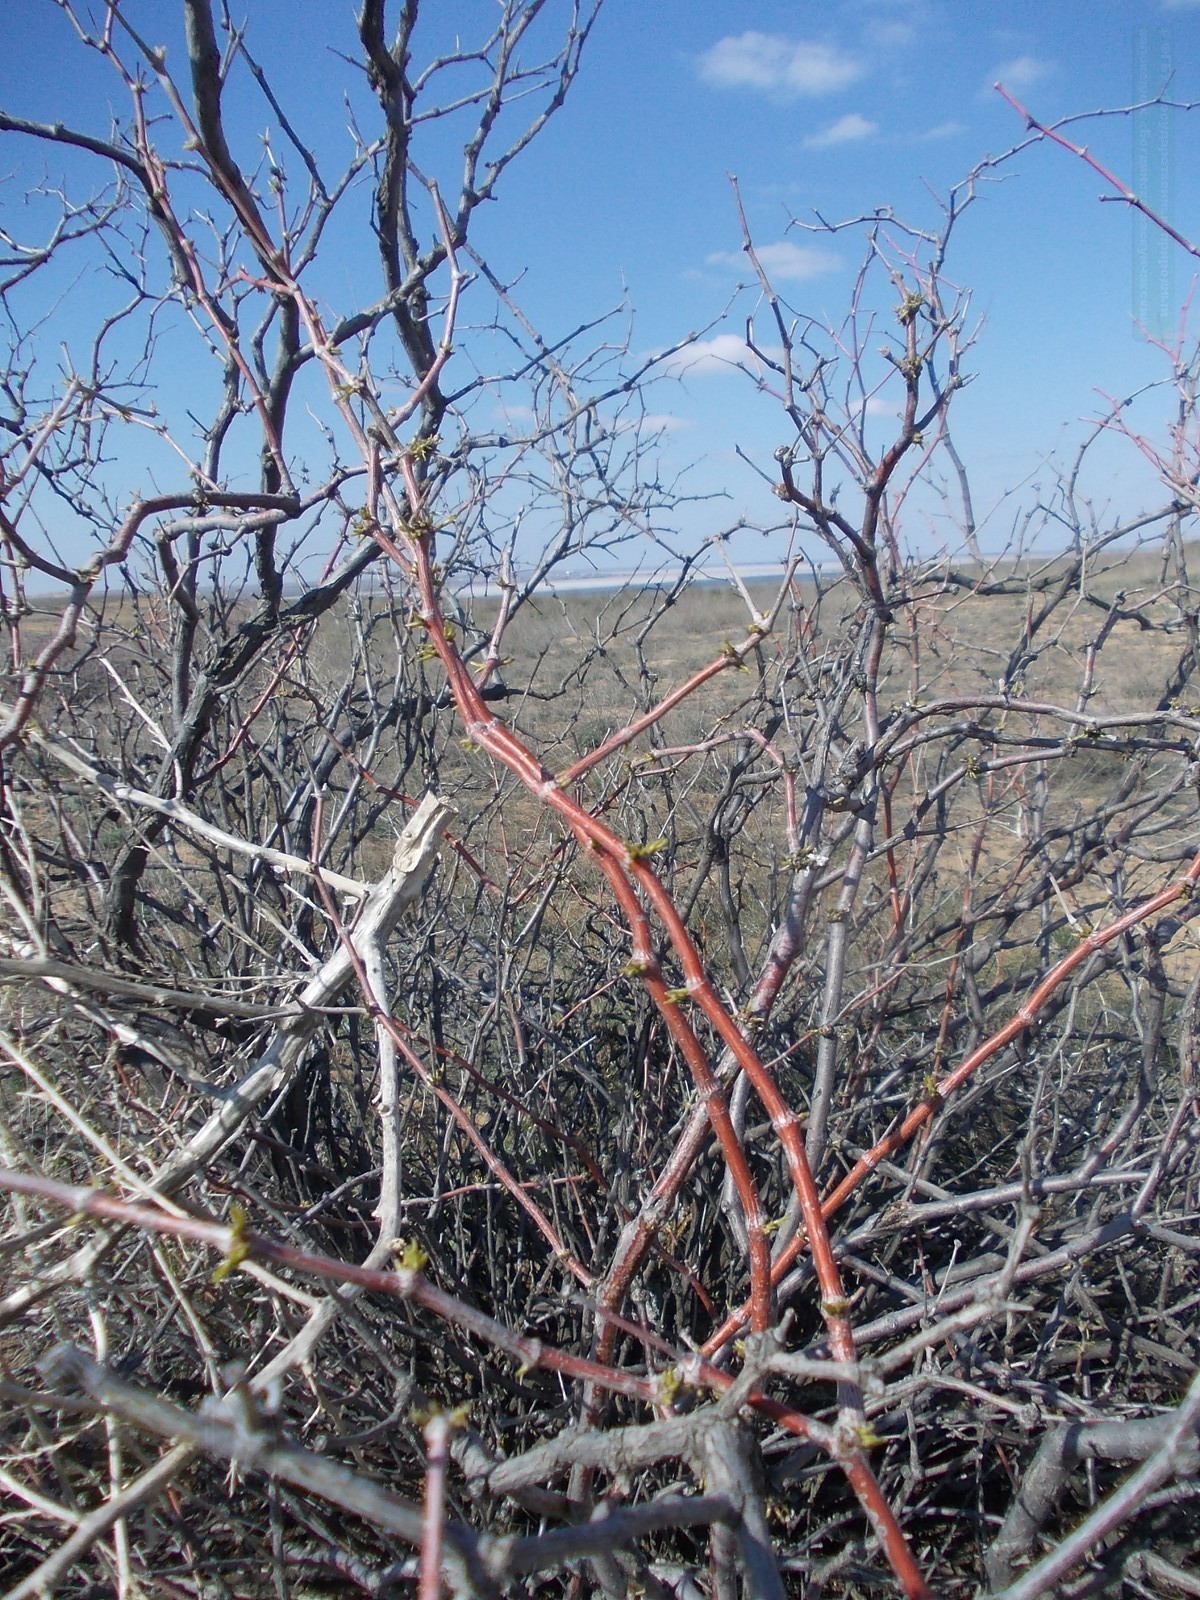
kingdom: Plantae
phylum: Tracheophyta
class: Magnoliopsida
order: Caryophyllales
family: Polygonaceae
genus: Calligonum
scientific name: Calligonum aphyllum
